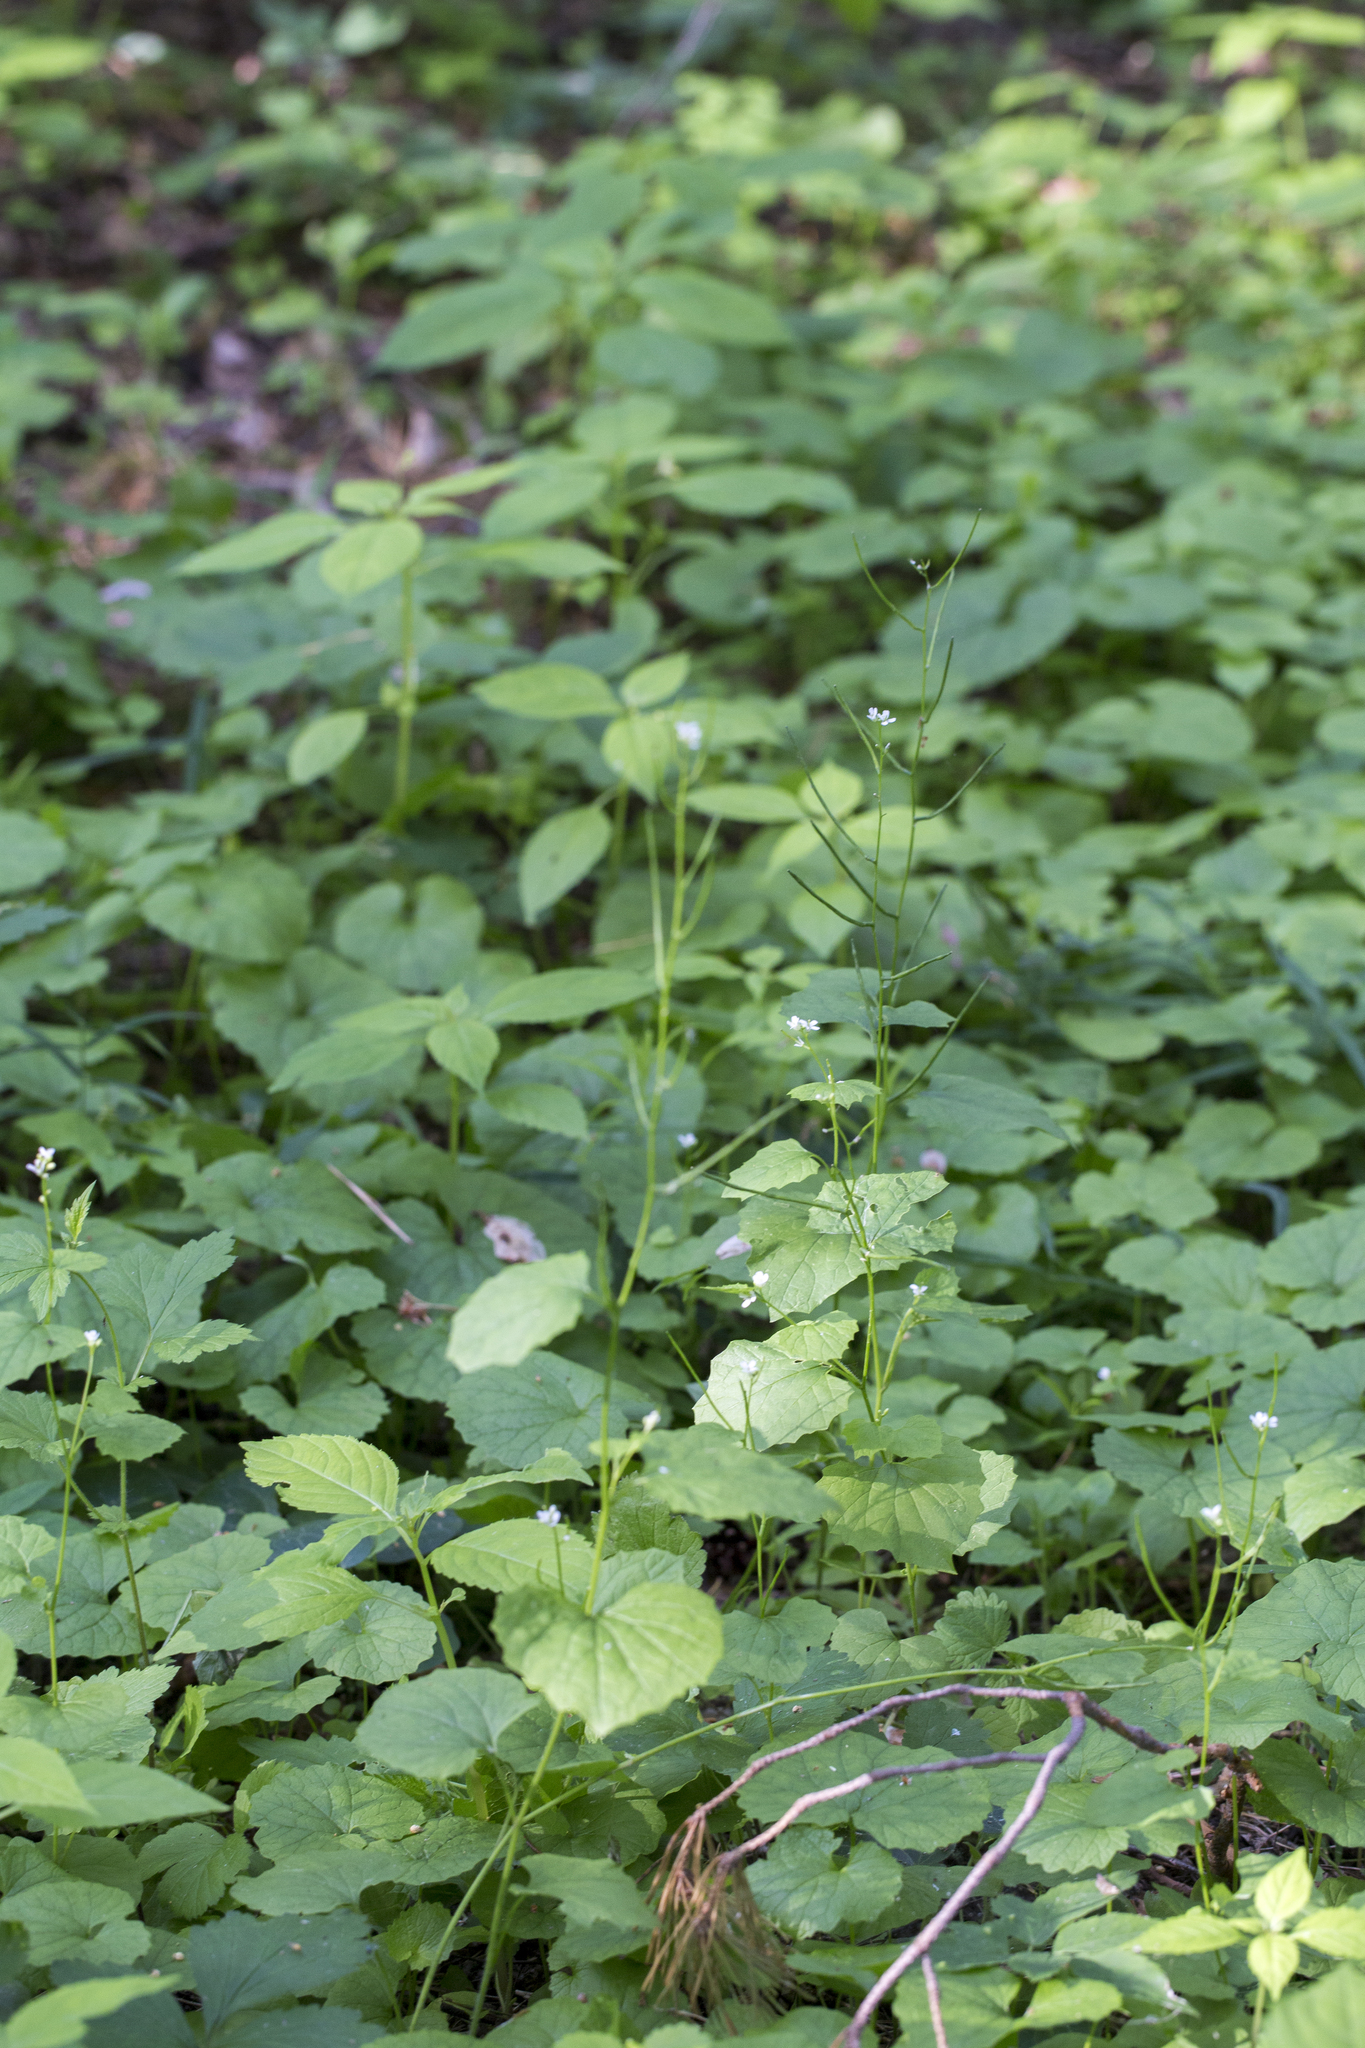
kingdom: Plantae
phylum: Tracheophyta
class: Magnoliopsida
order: Brassicales
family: Brassicaceae
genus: Alliaria
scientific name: Alliaria petiolata
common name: Garlic mustard
